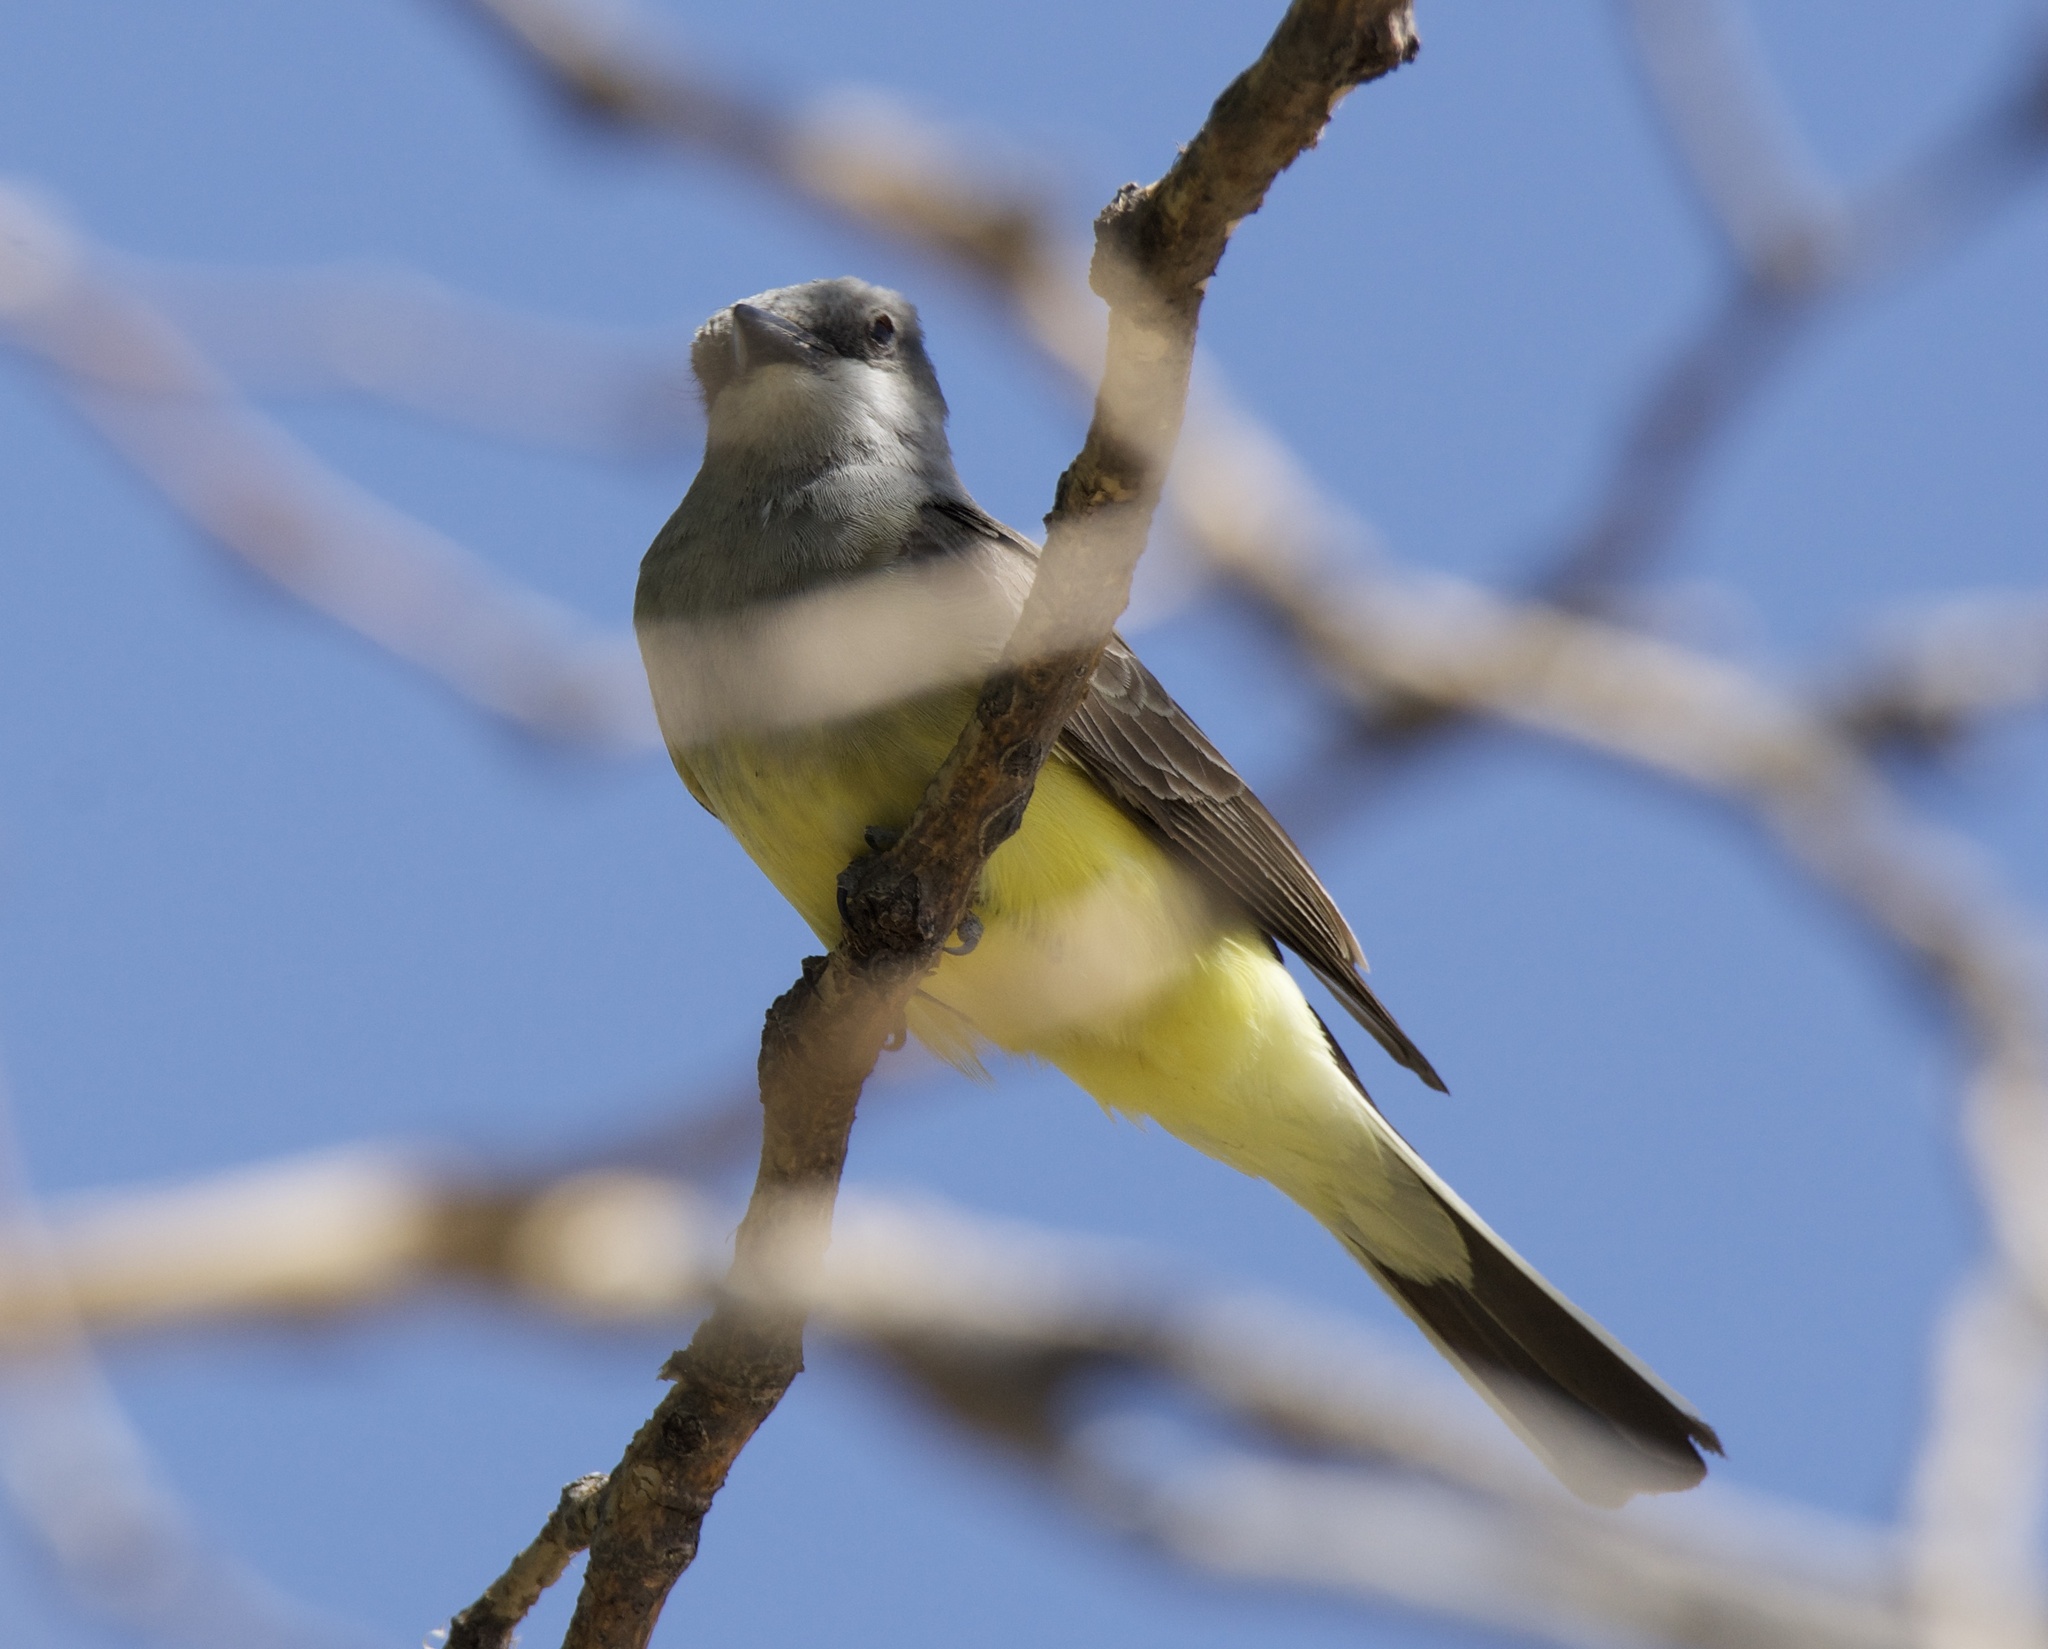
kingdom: Animalia
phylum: Chordata
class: Aves
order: Passeriformes
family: Tyrannidae
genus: Tyrannus
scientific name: Tyrannus verticalis
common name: Western kingbird
